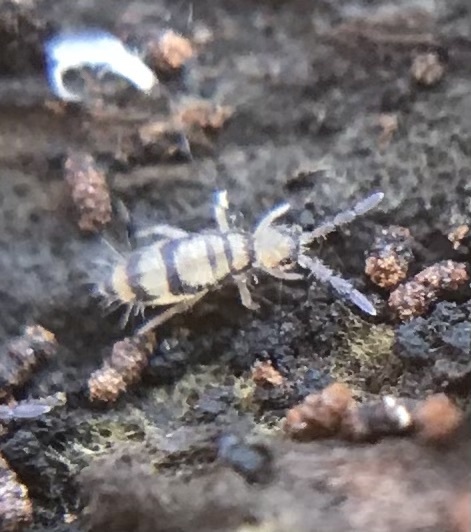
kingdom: Animalia
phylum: Arthropoda
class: Collembola
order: Entomobryomorpha
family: Entomobryidae
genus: Entomobrya
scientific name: Entomobrya corticalis
